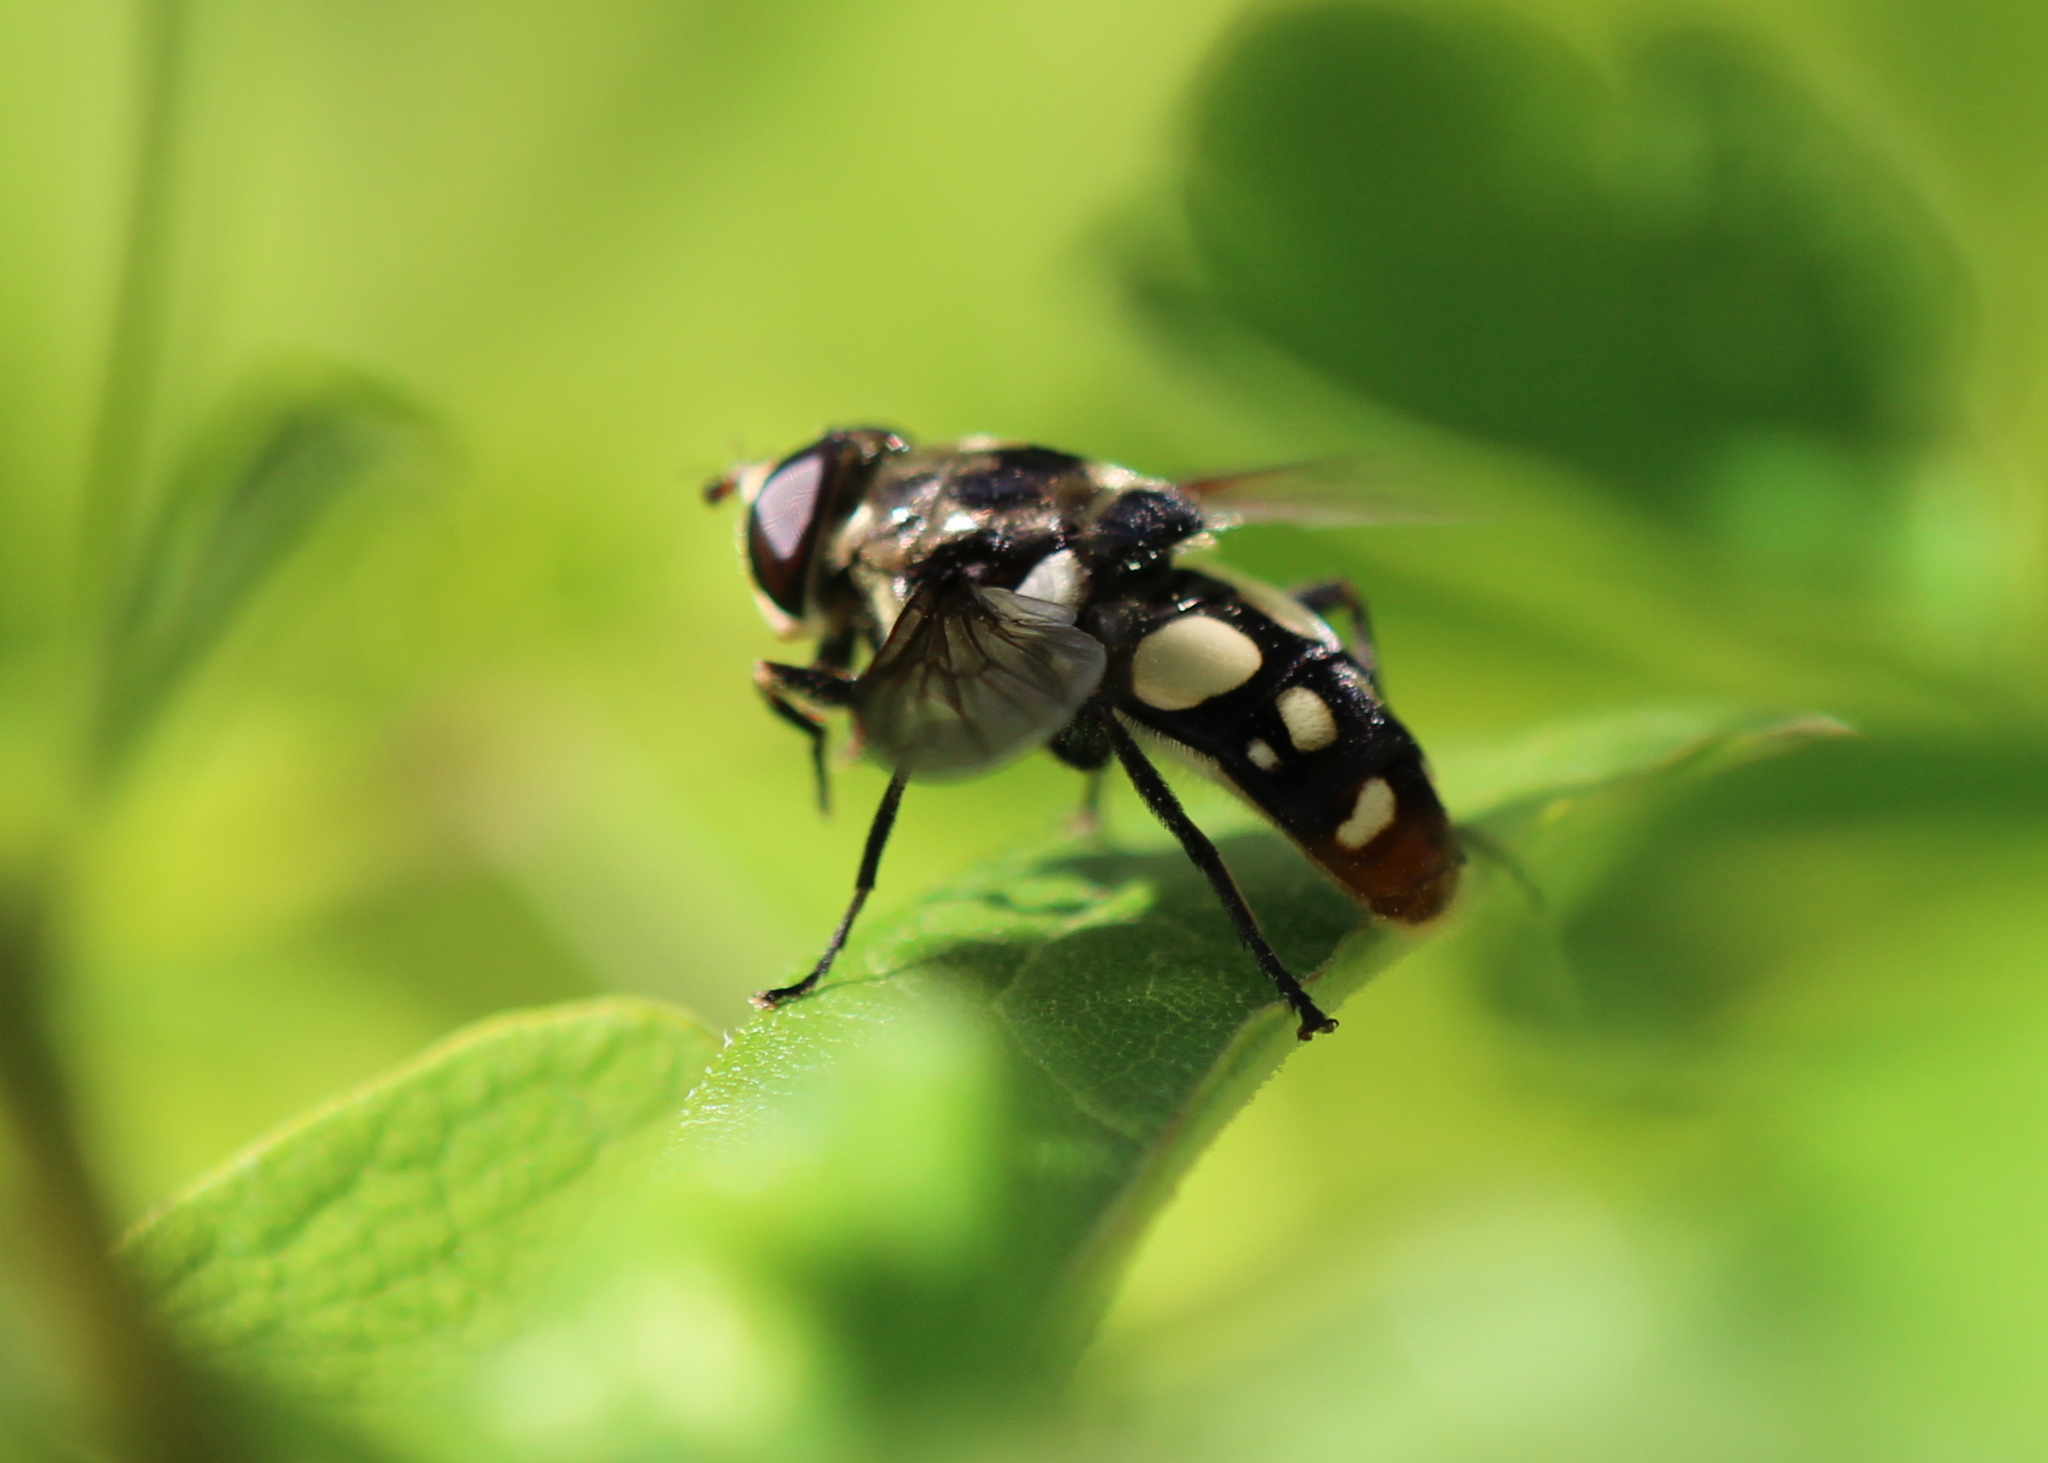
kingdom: Animalia
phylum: Arthropoda
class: Insecta
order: Diptera
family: Syrphidae
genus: Sericomyia
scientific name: Sericomyia lata
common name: White-spotted pond fly
